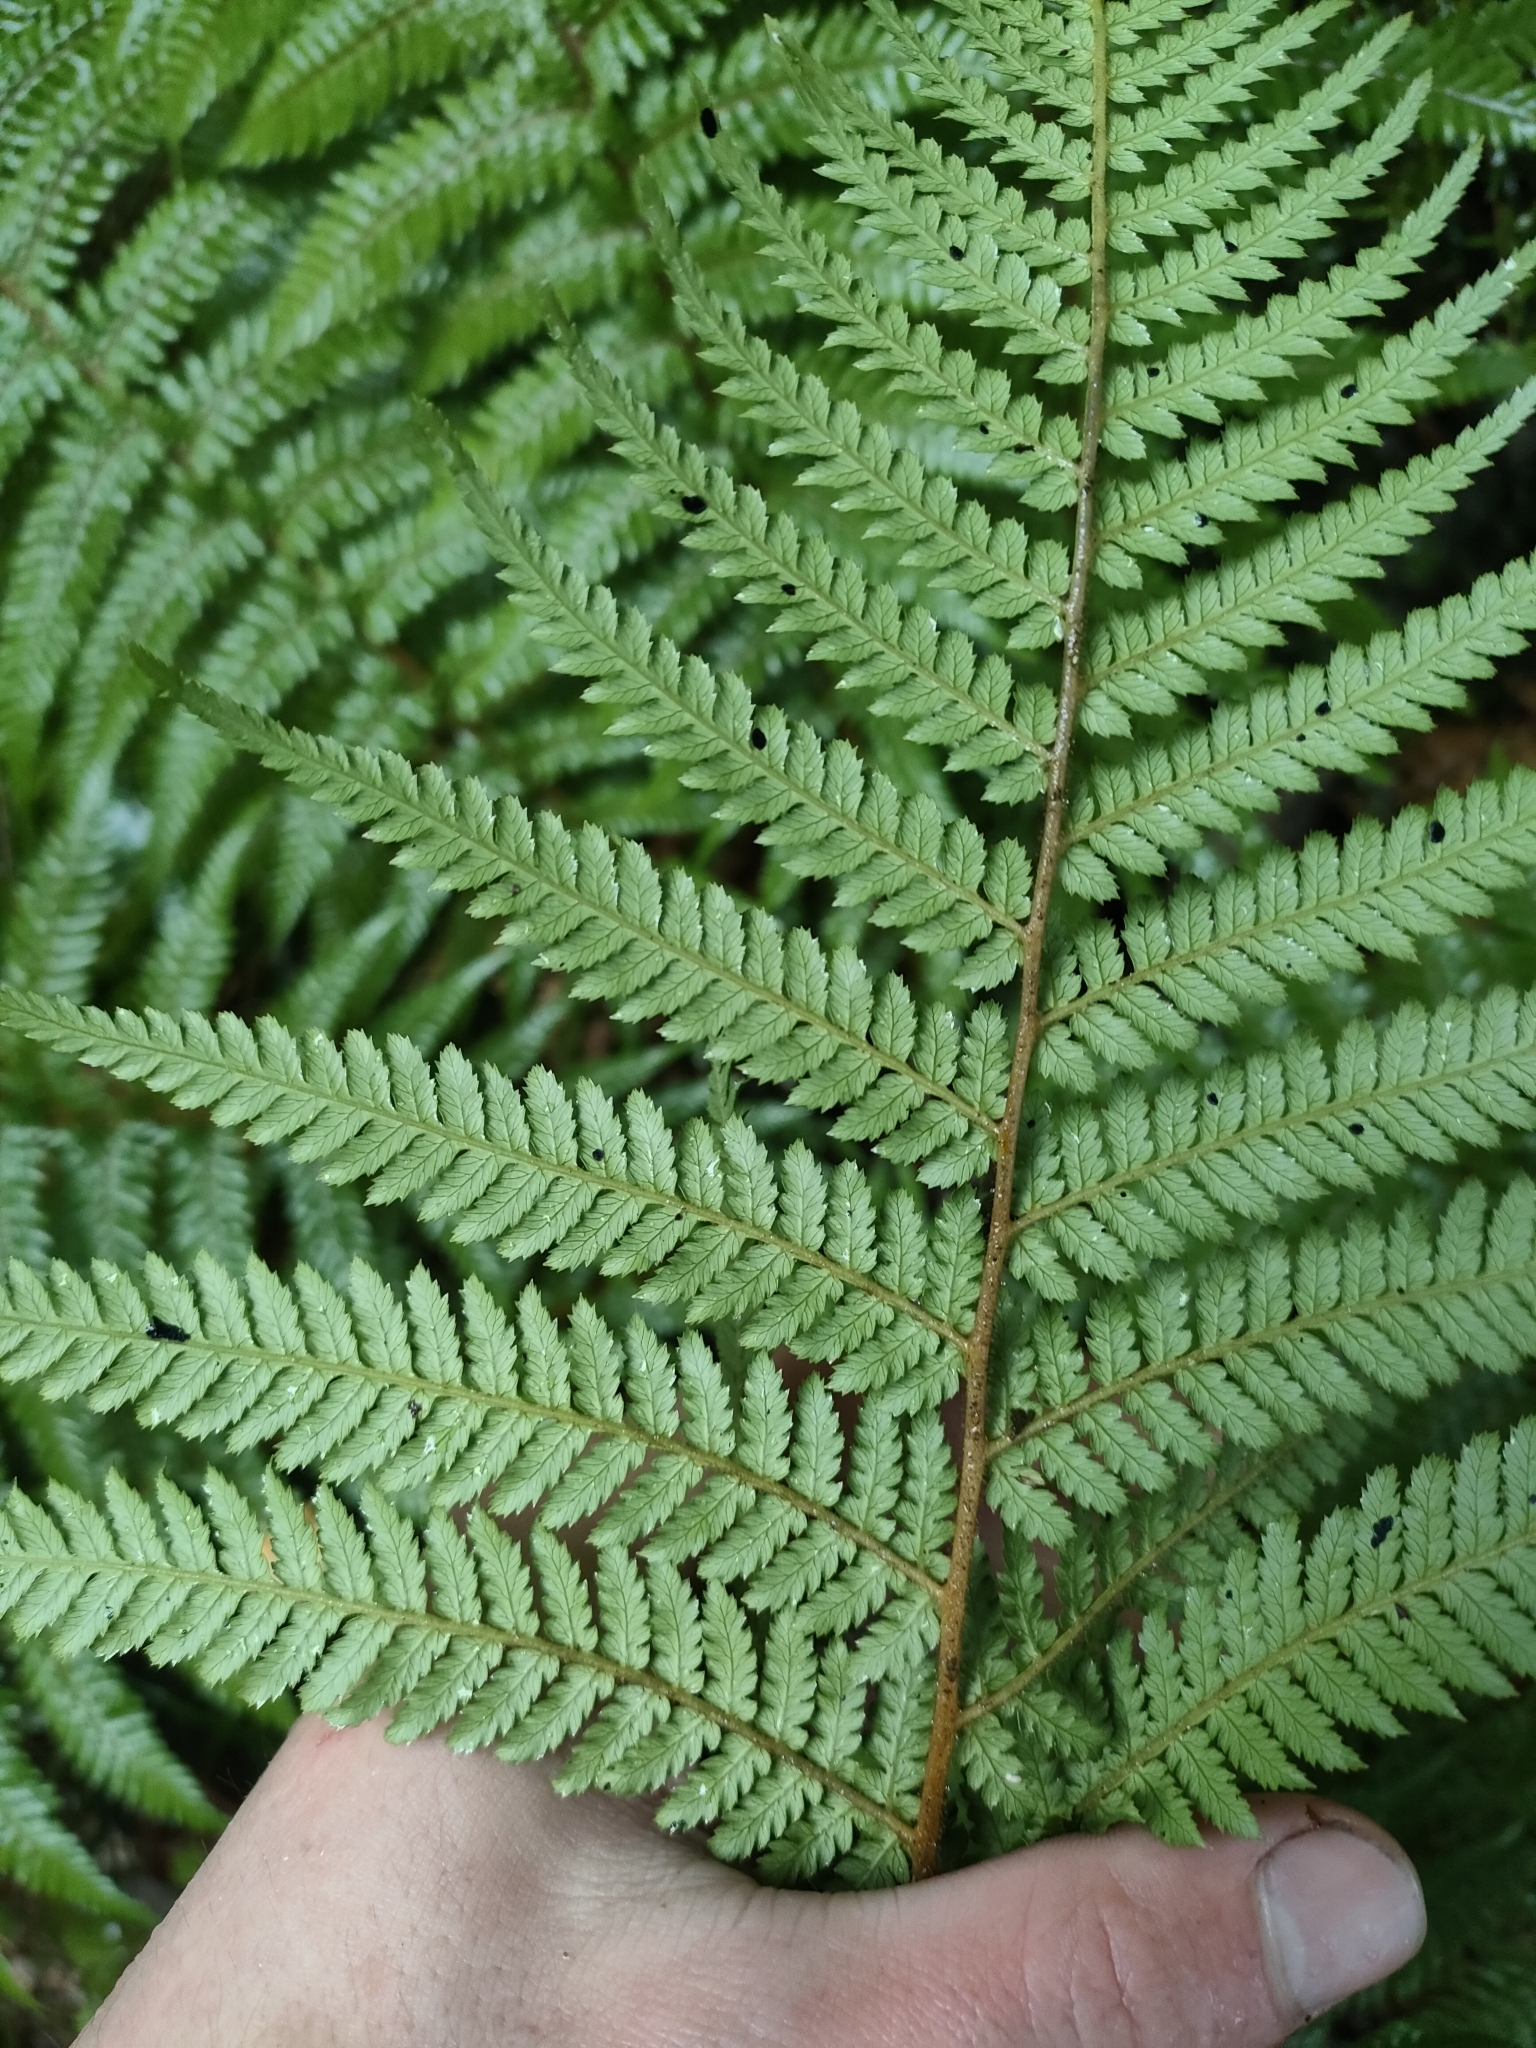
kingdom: Plantae
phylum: Tracheophyta
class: Polypodiopsida
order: Cyatheales
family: Dicksoniaceae
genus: Dicksonia
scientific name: Dicksonia fibrosa
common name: Golden tree fern
